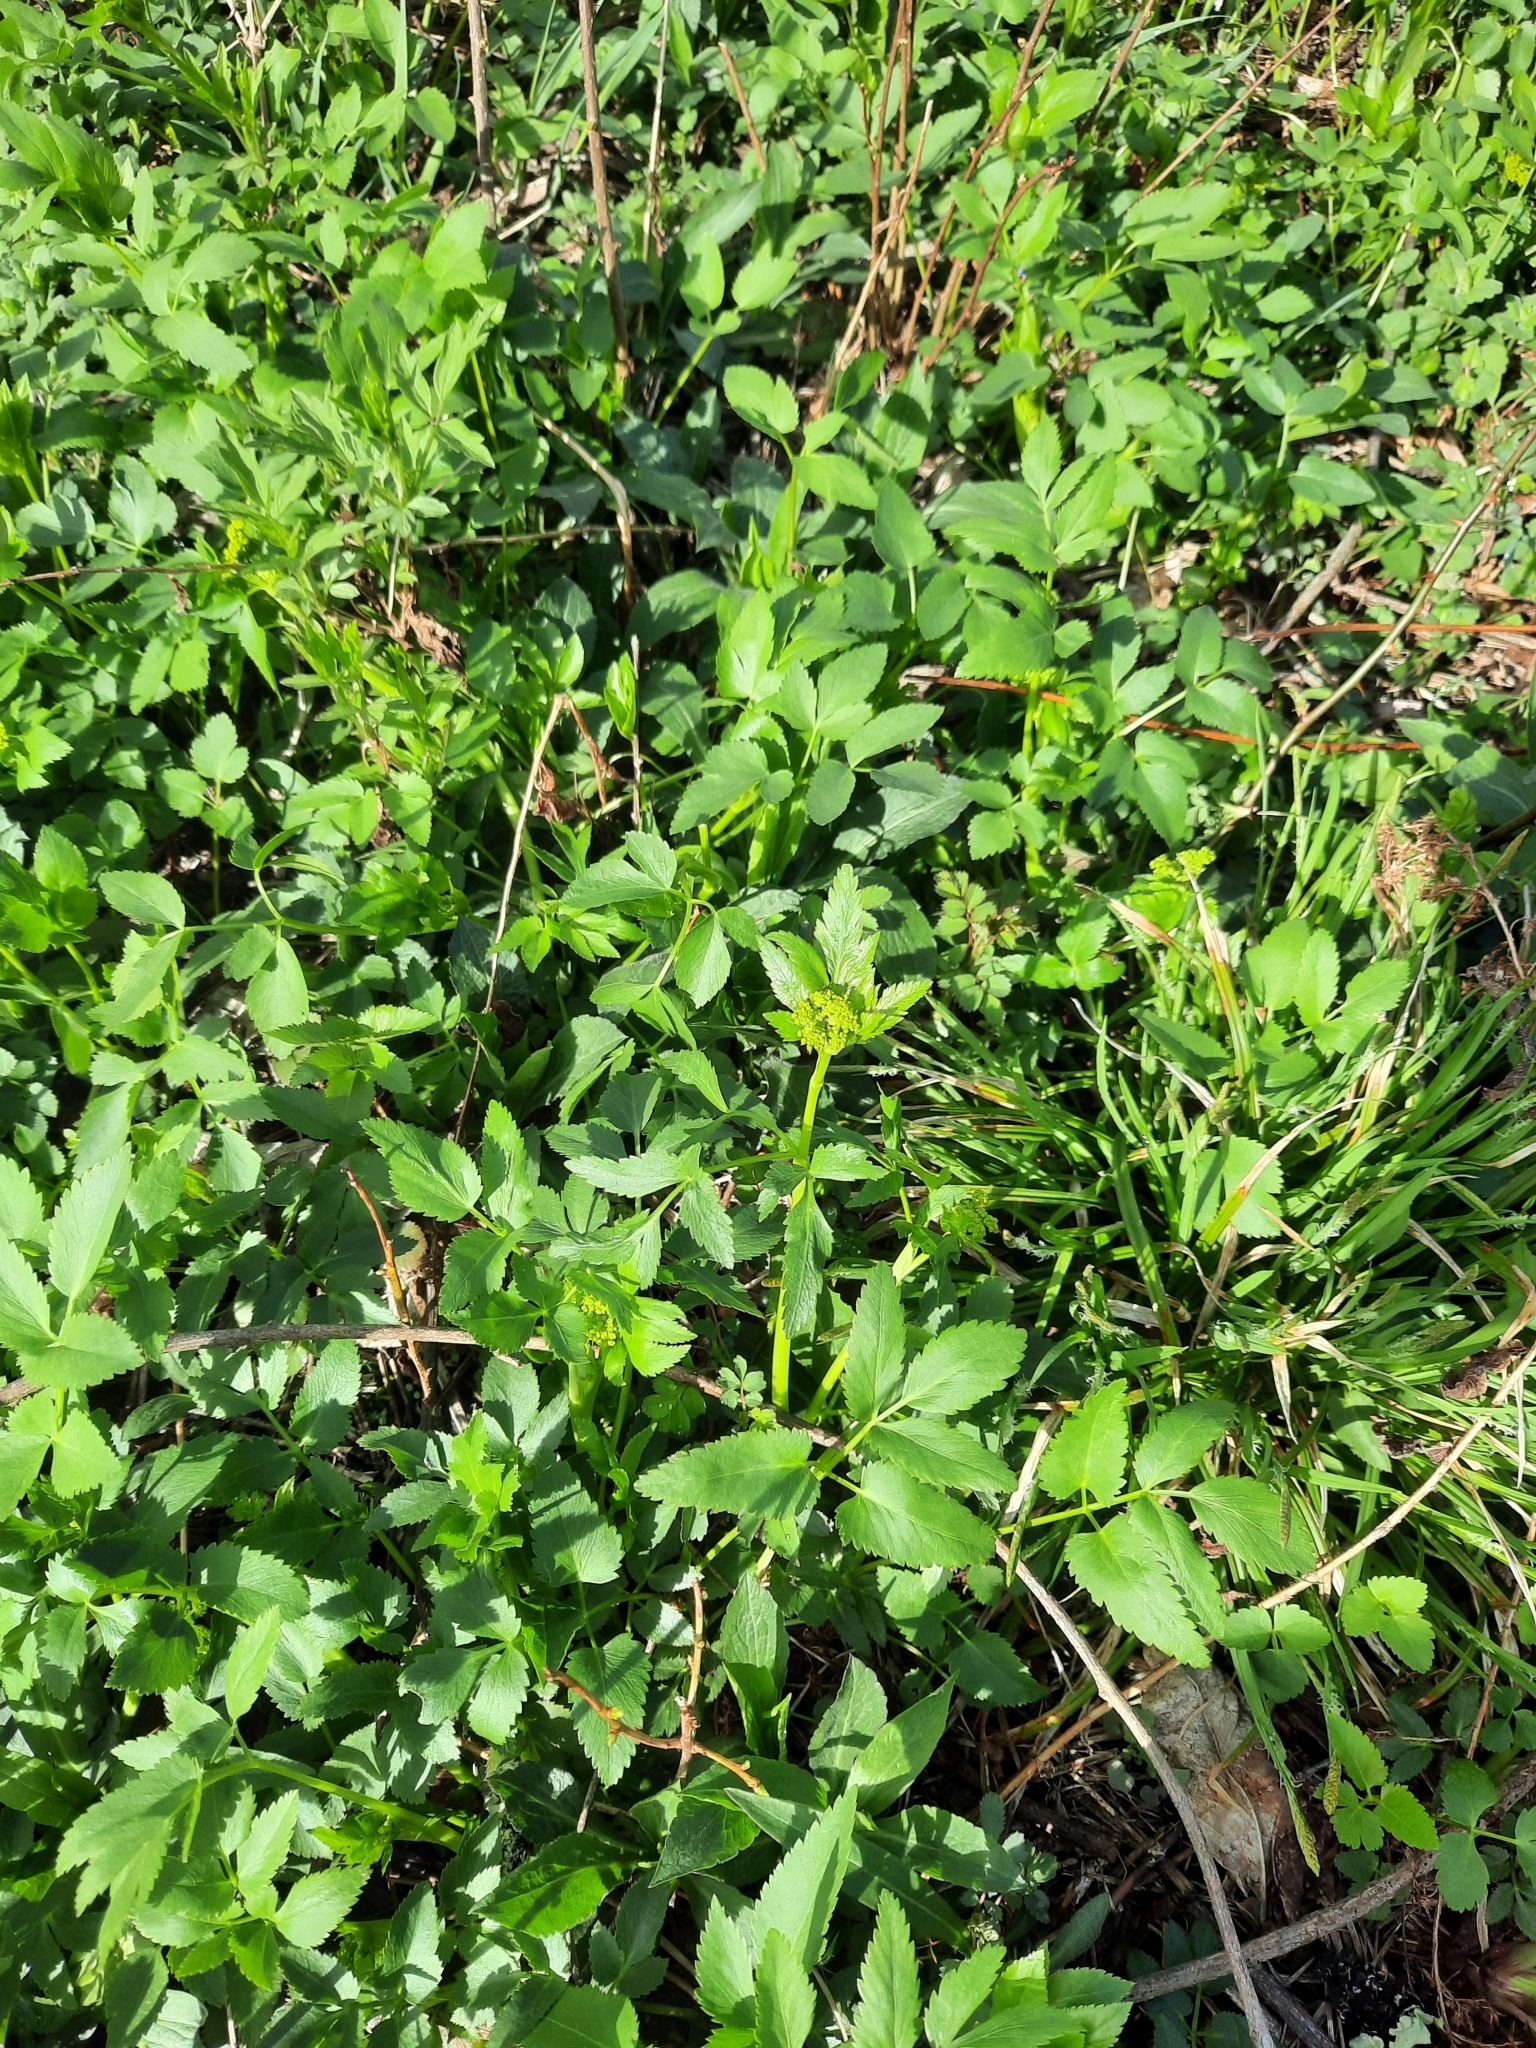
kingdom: Plantae
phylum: Tracheophyta
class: Magnoliopsida
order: Apiales
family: Apiaceae
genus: Zizia
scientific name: Zizia aurea
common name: Golden alexanders
